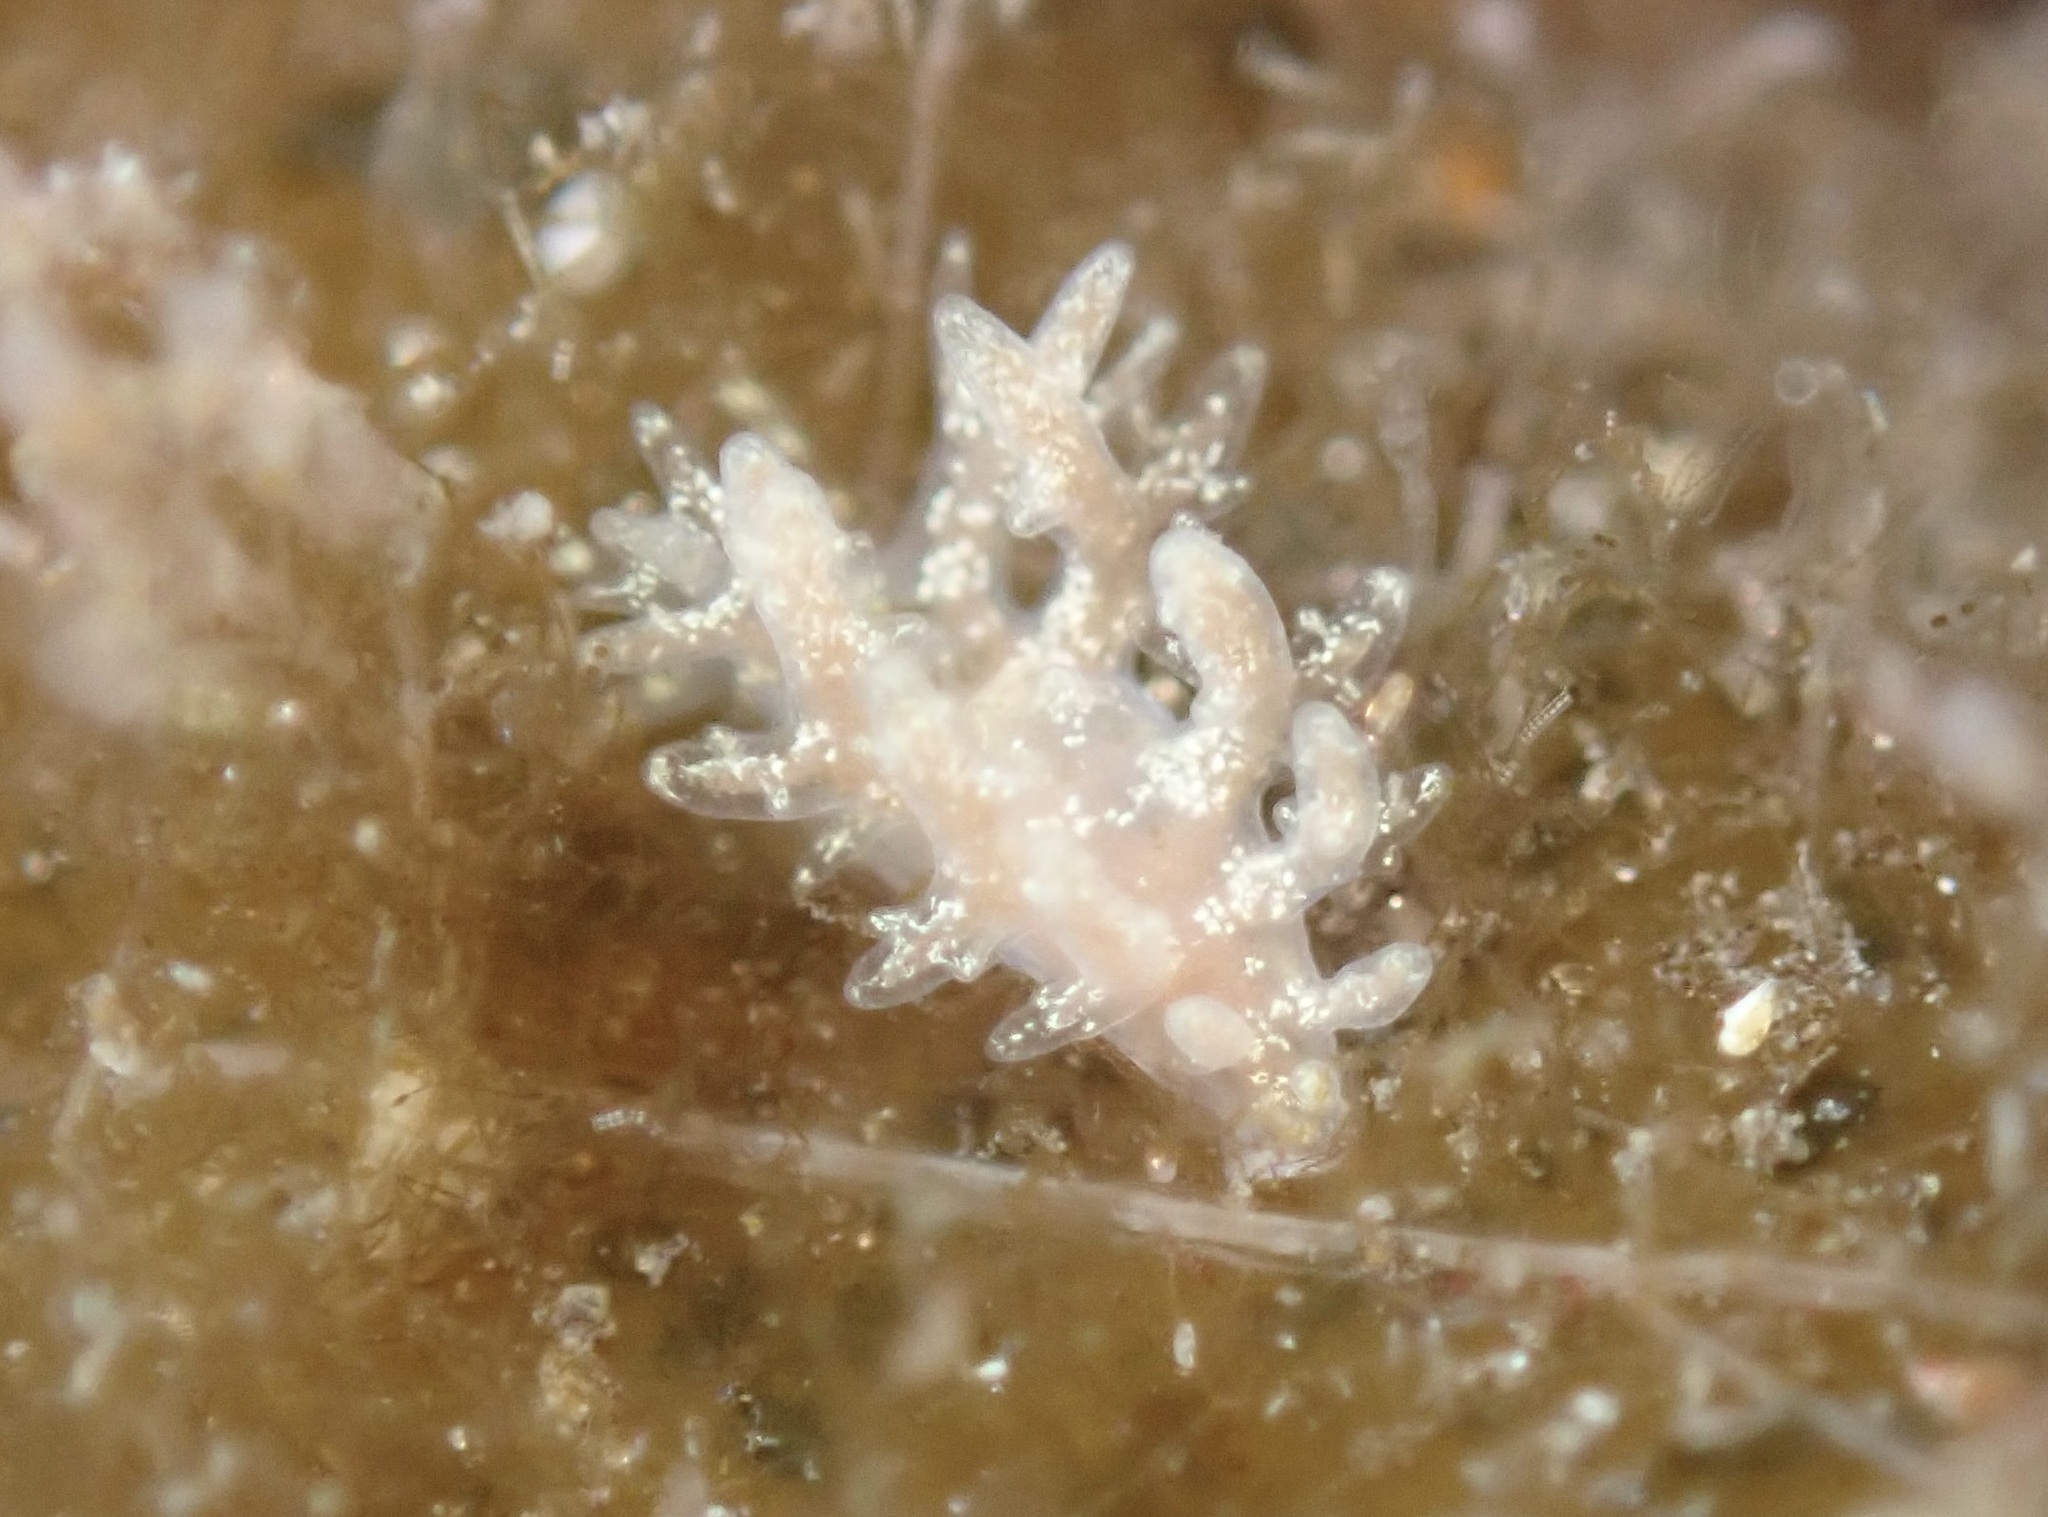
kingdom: Animalia
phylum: Mollusca
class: Gastropoda
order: Nudibranchia
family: Dendronotidae
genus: Dendronotus
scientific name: Dendronotus venustus
